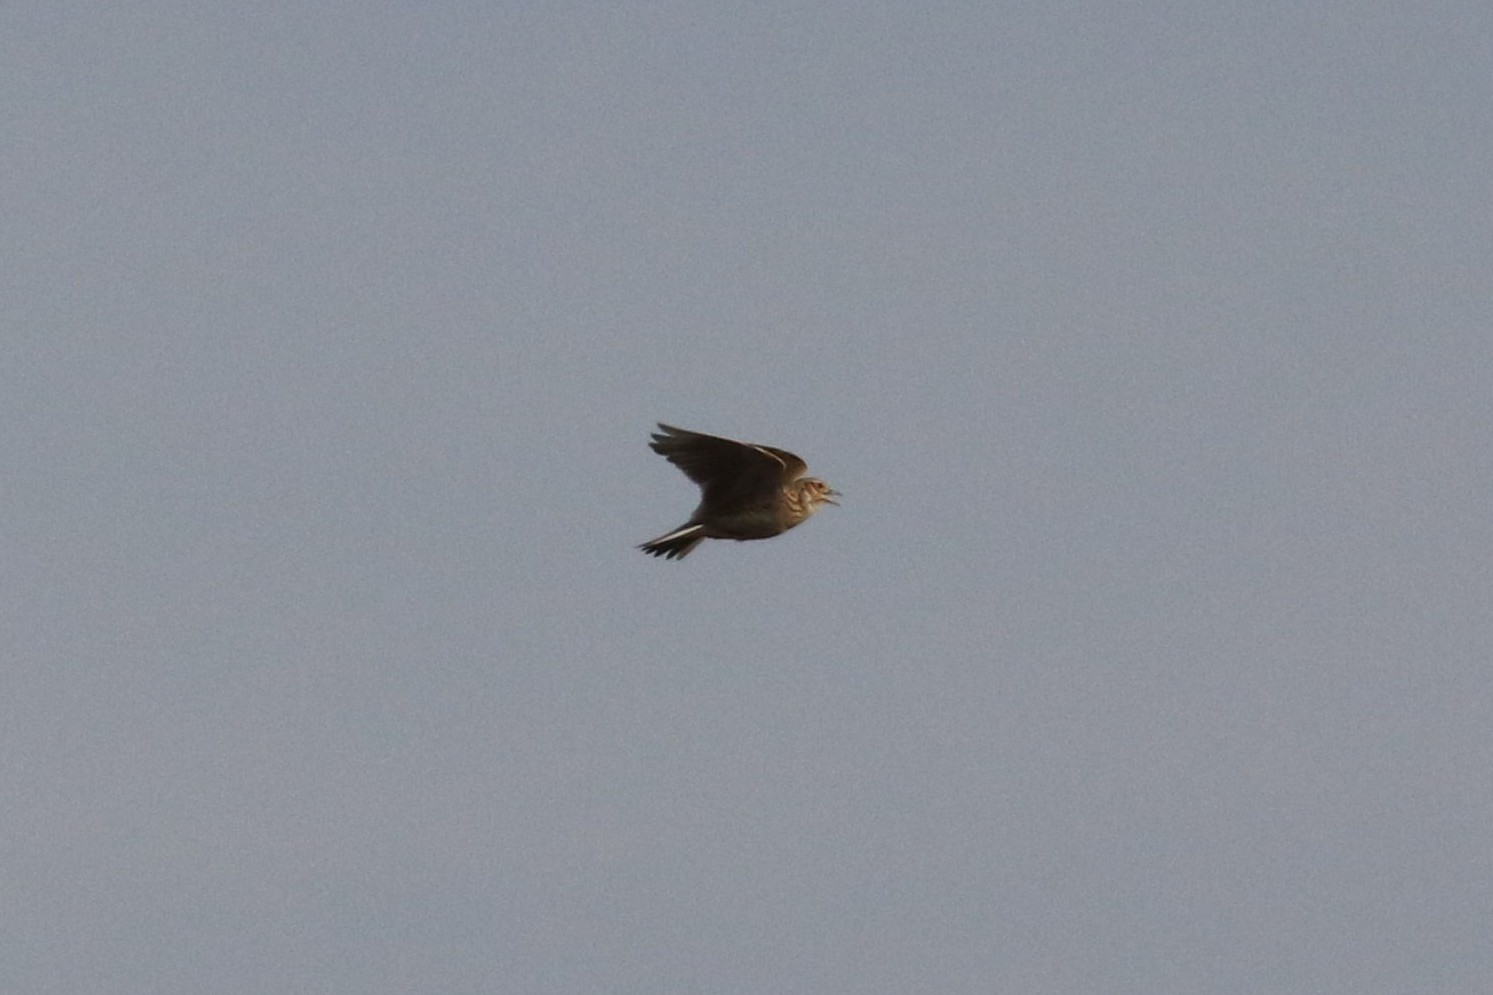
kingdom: Animalia
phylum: Chordata
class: Aves
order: Passeriformes
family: Alaudidae
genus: Alauda
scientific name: Alauda arvensis
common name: Eurasian skylark
